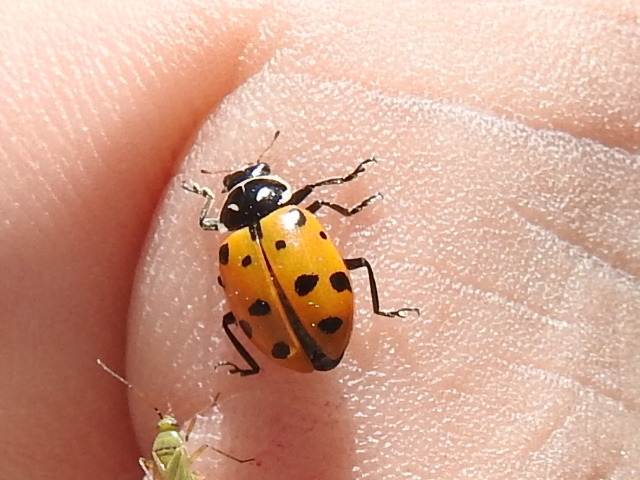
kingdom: Animalia
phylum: Arthropoda
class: Insecta
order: Coleoptera
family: Coccinellidae
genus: Hippodamia
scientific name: Hippodamia convergens
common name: Convergent lady beetle
